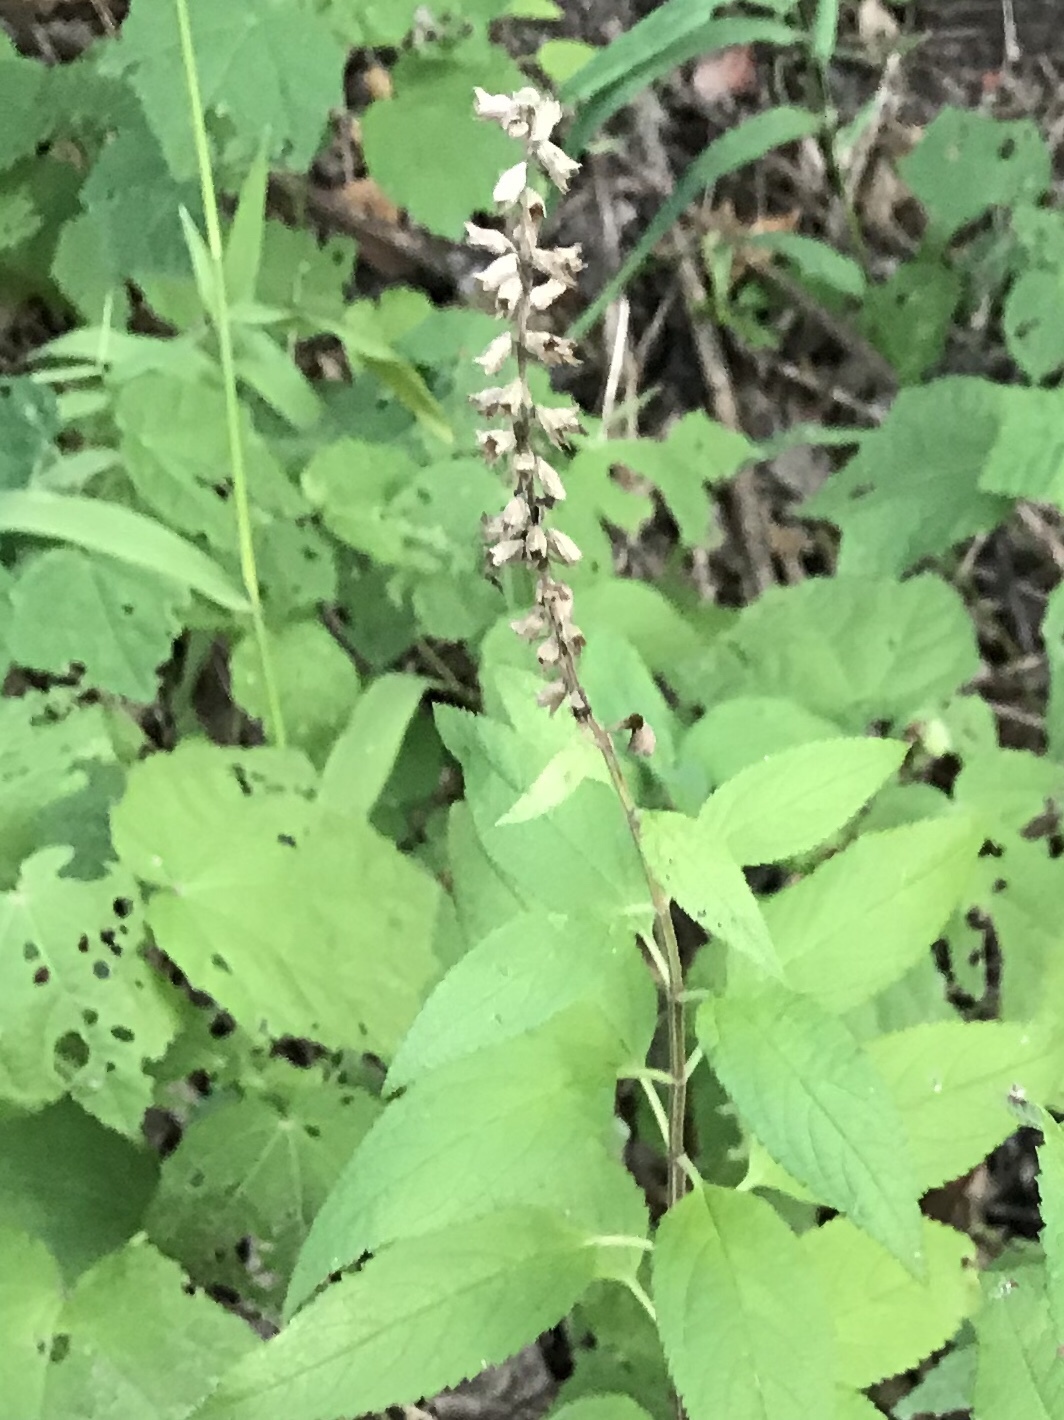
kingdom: Plantae
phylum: Tracheophyta
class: Magnoliopsida
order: Lamiales
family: Lamiaceae
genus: Teucrium
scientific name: Teucrium canadense
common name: American germander
